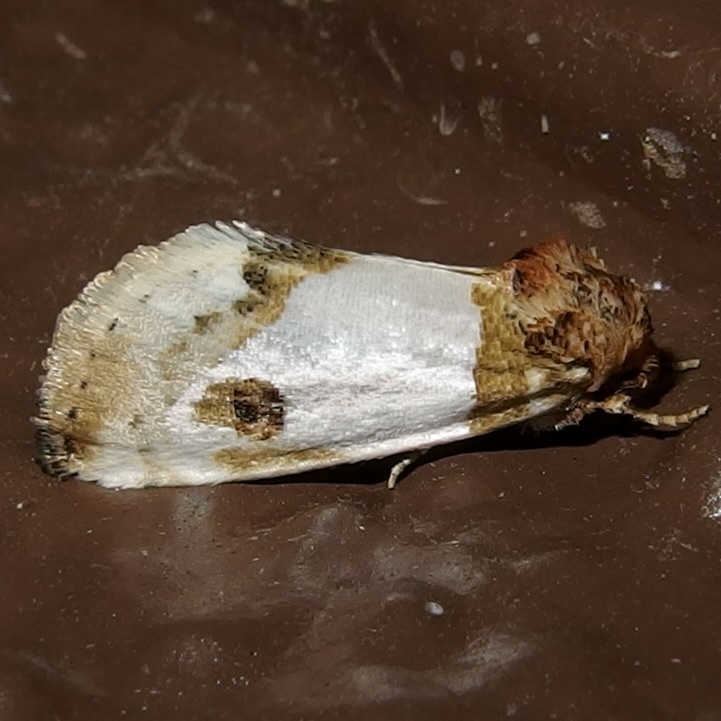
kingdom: Animalia
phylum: Arthropoda
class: Insecta
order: Lepidoptera
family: Noctuidae
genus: Schinia
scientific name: Schinia oculata
